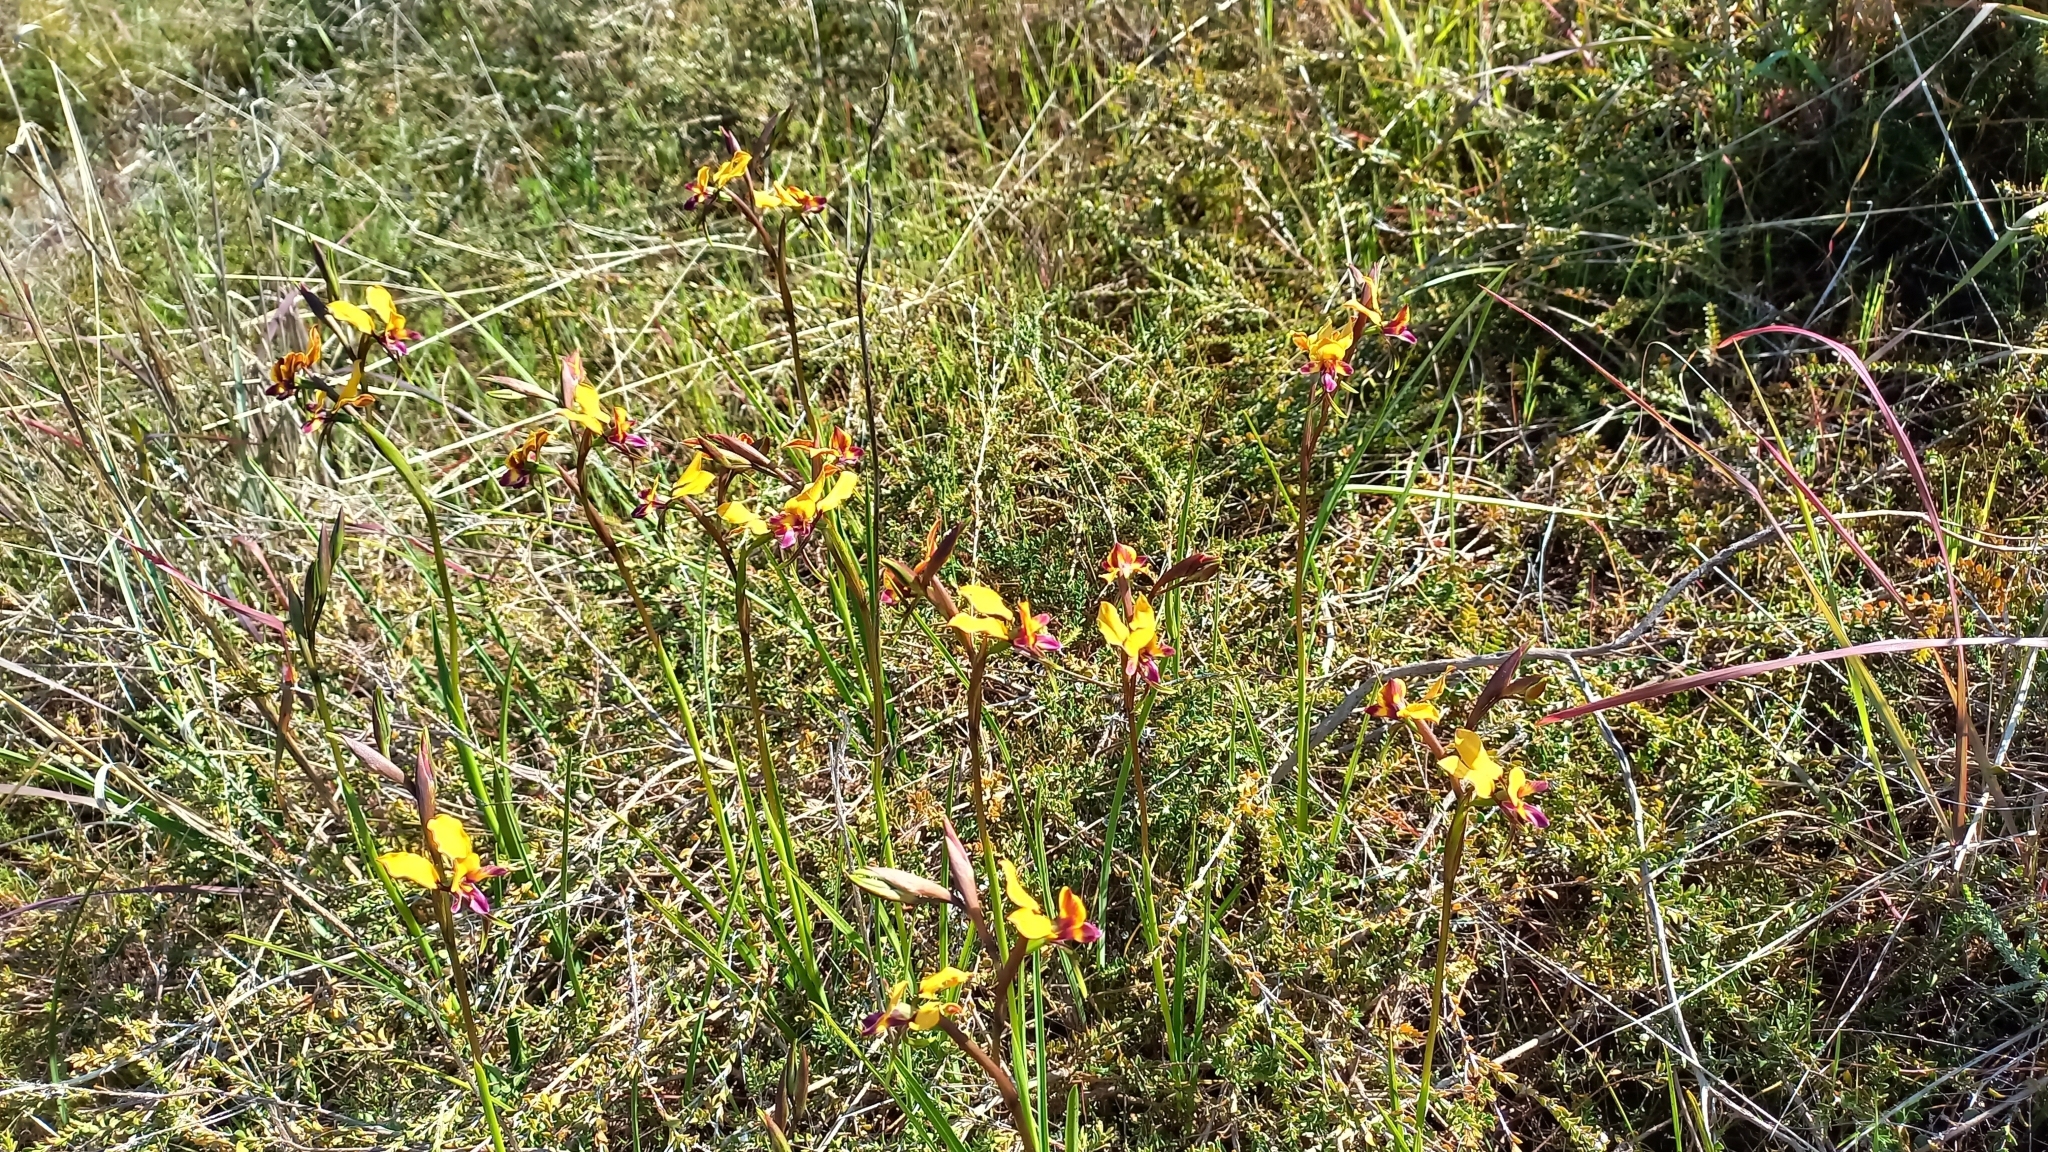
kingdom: Plantae
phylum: Tracheophyta
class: Liliopsida
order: Asparagales
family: Orchidaceae
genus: Diuris
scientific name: Diuris magnifica
